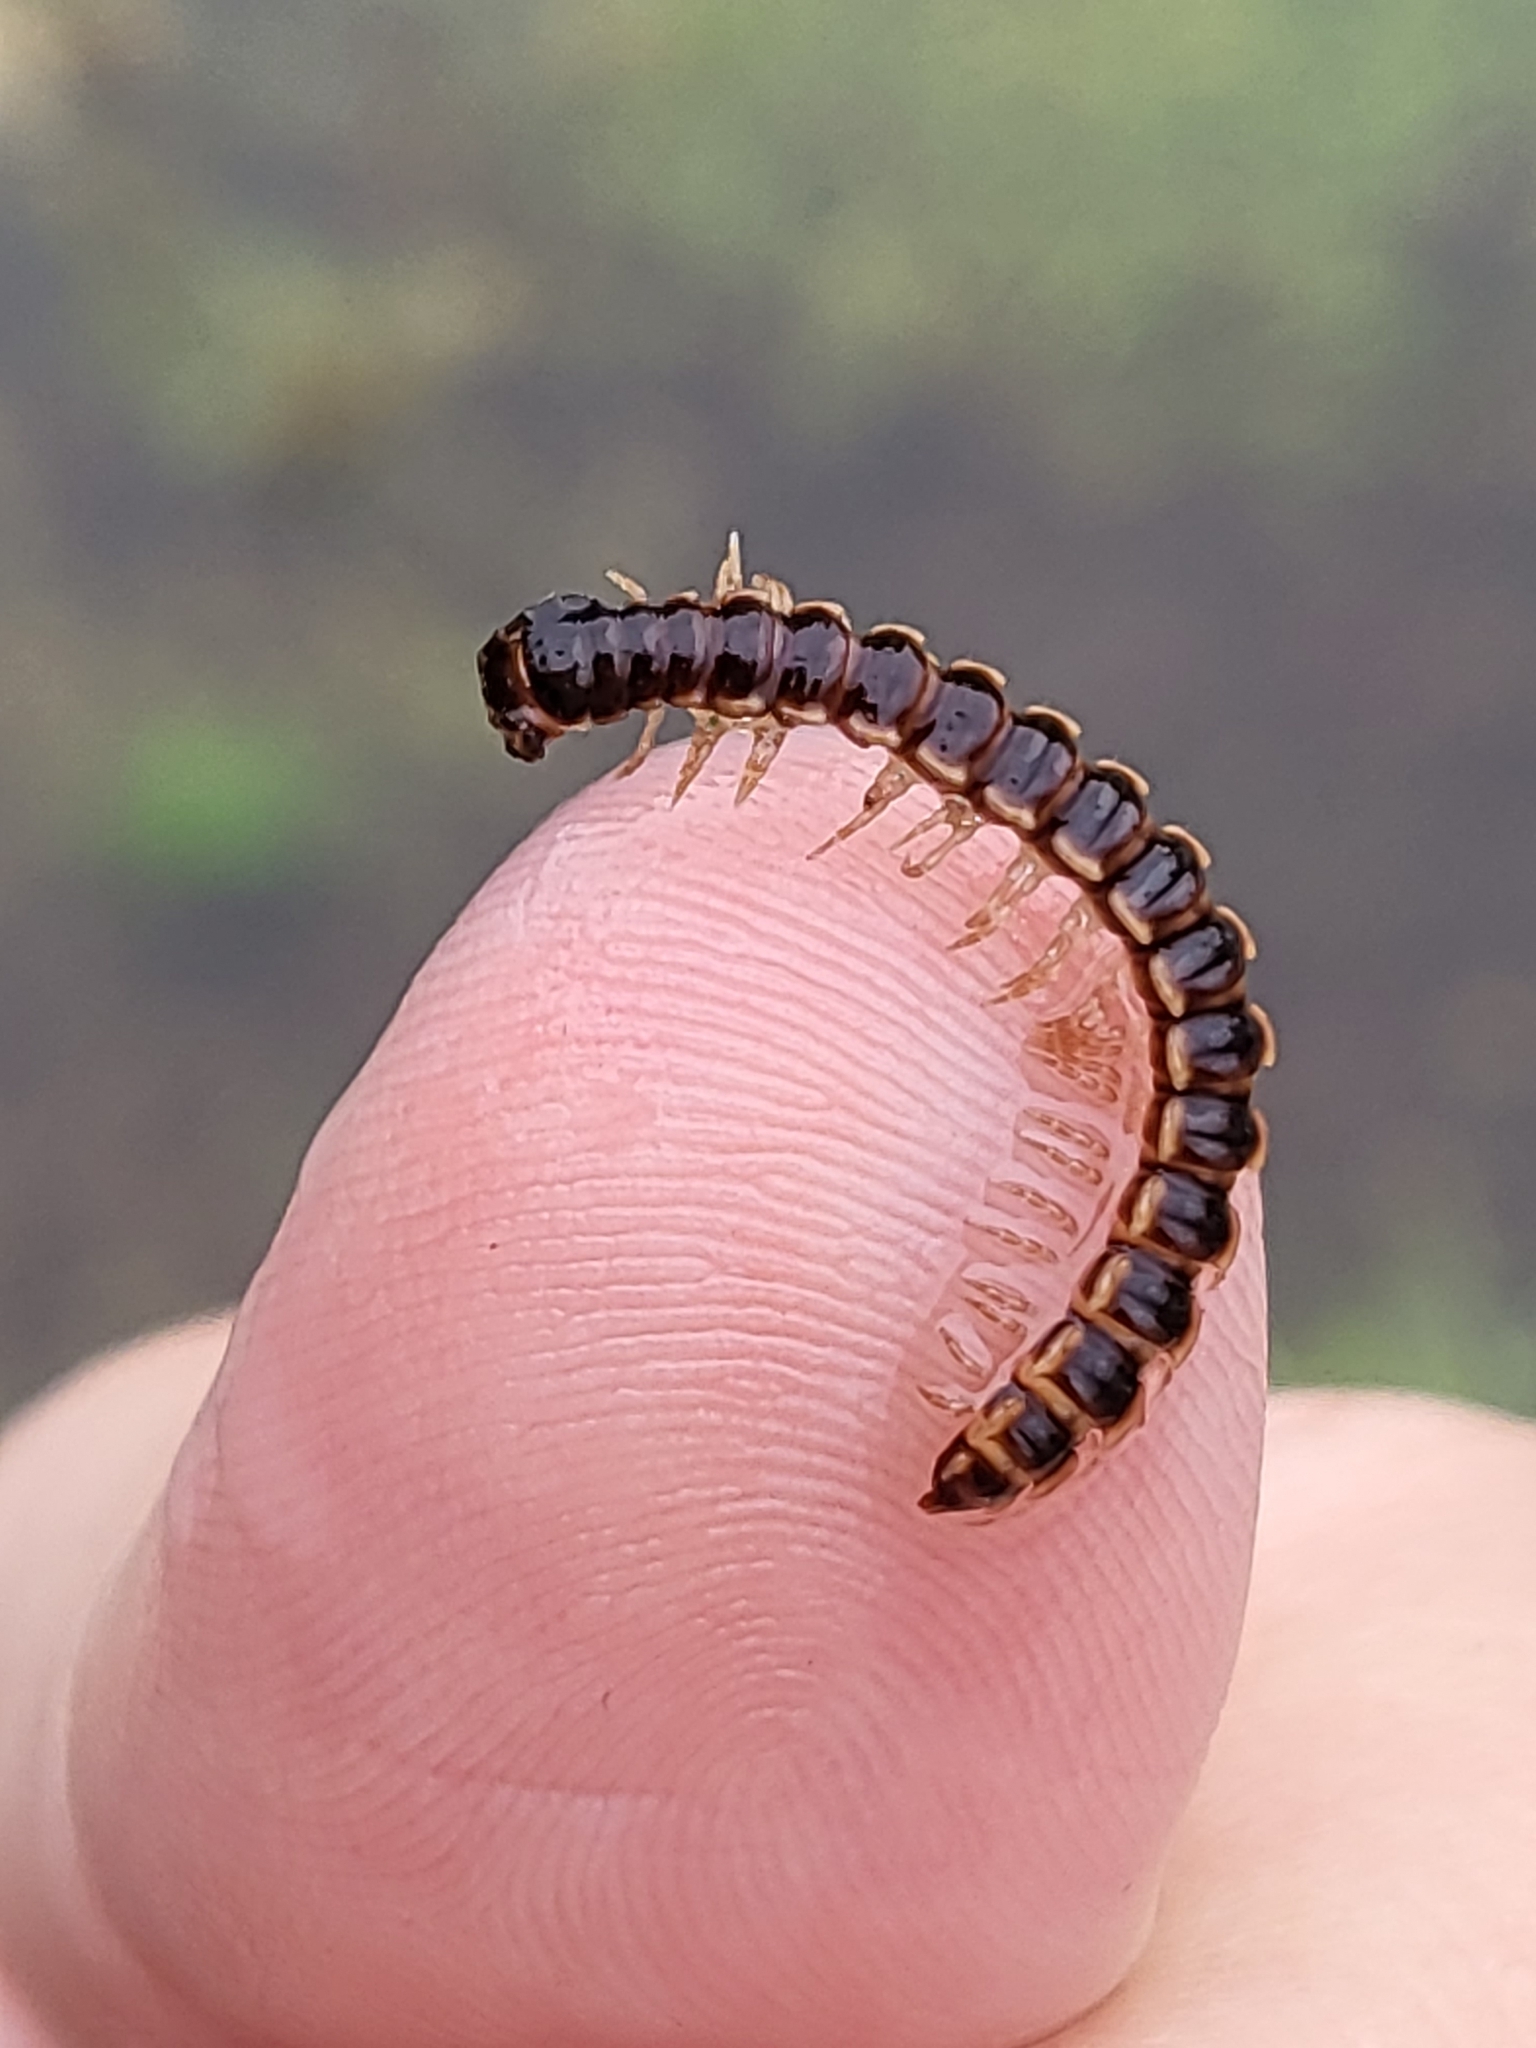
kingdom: Animalia
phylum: Arthropoda
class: Diplopoda
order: Polydesmida
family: Paradoxosomatidae
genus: Oxidus
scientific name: Oxidus gracilis
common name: Greenhouse millipede
